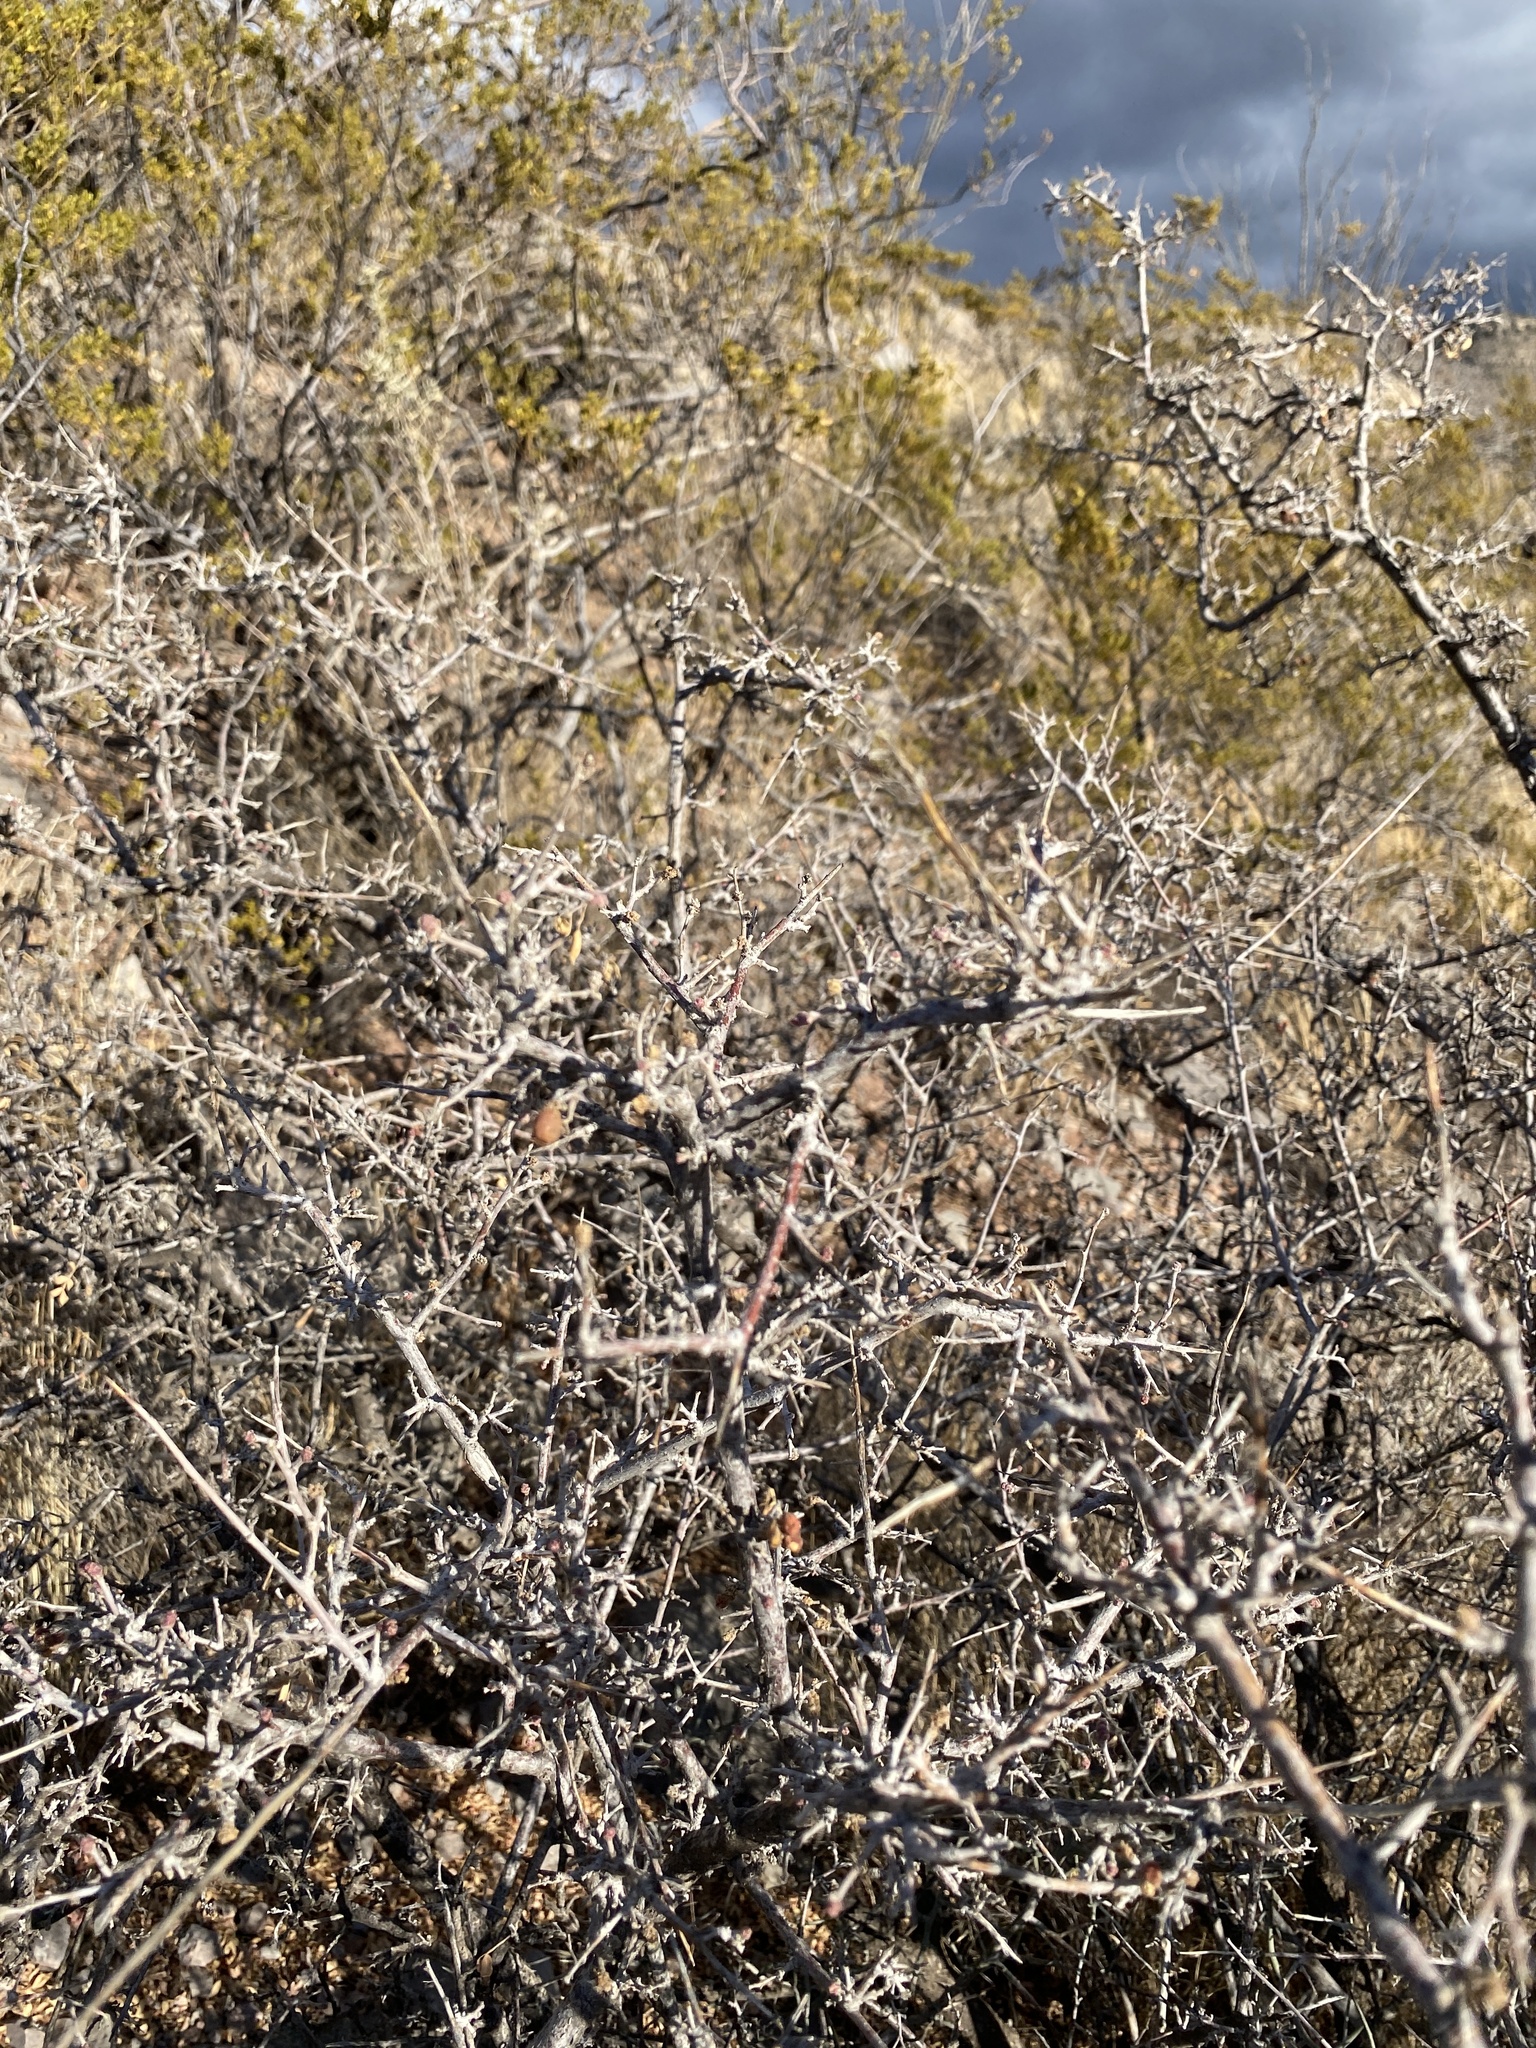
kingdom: Plantae
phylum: Tracheophyta
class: Magnoliopsida
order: Sapindales
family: Anacardiaceae
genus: Rhus
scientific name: Rhus microphylla
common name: Desert sumac
